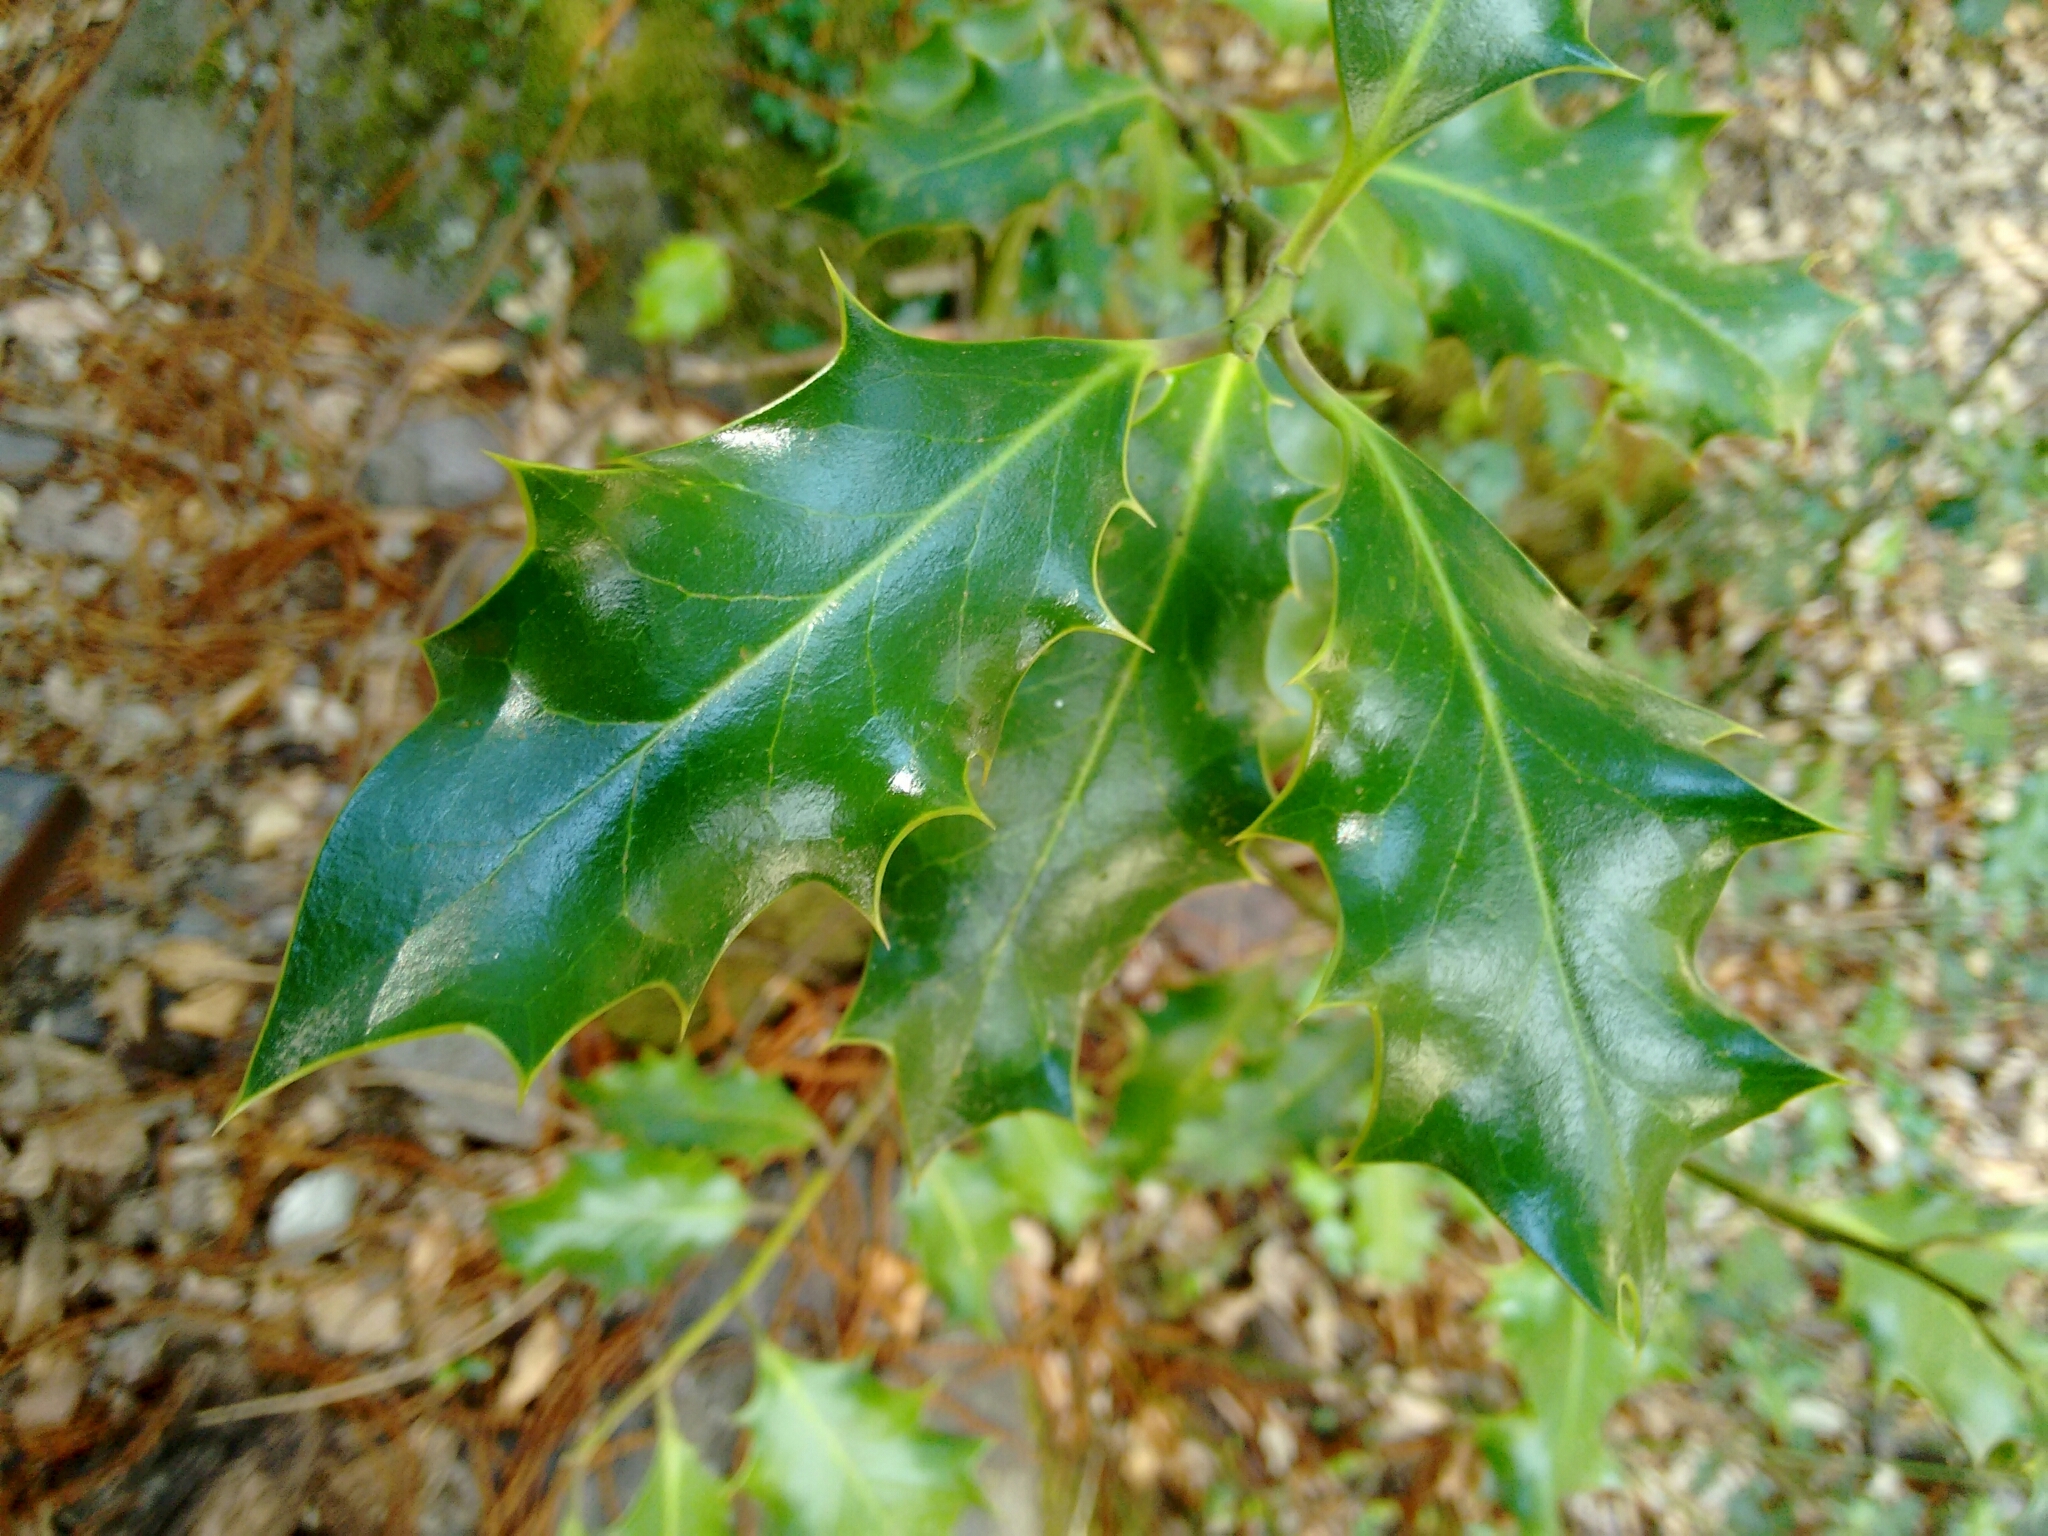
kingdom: Plantae
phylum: Tracheophyta
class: Magnoliopsida
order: Aquifoliales
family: Aquifoliaceae
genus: Ilex
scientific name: Ilex aquifolium
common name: English holly
